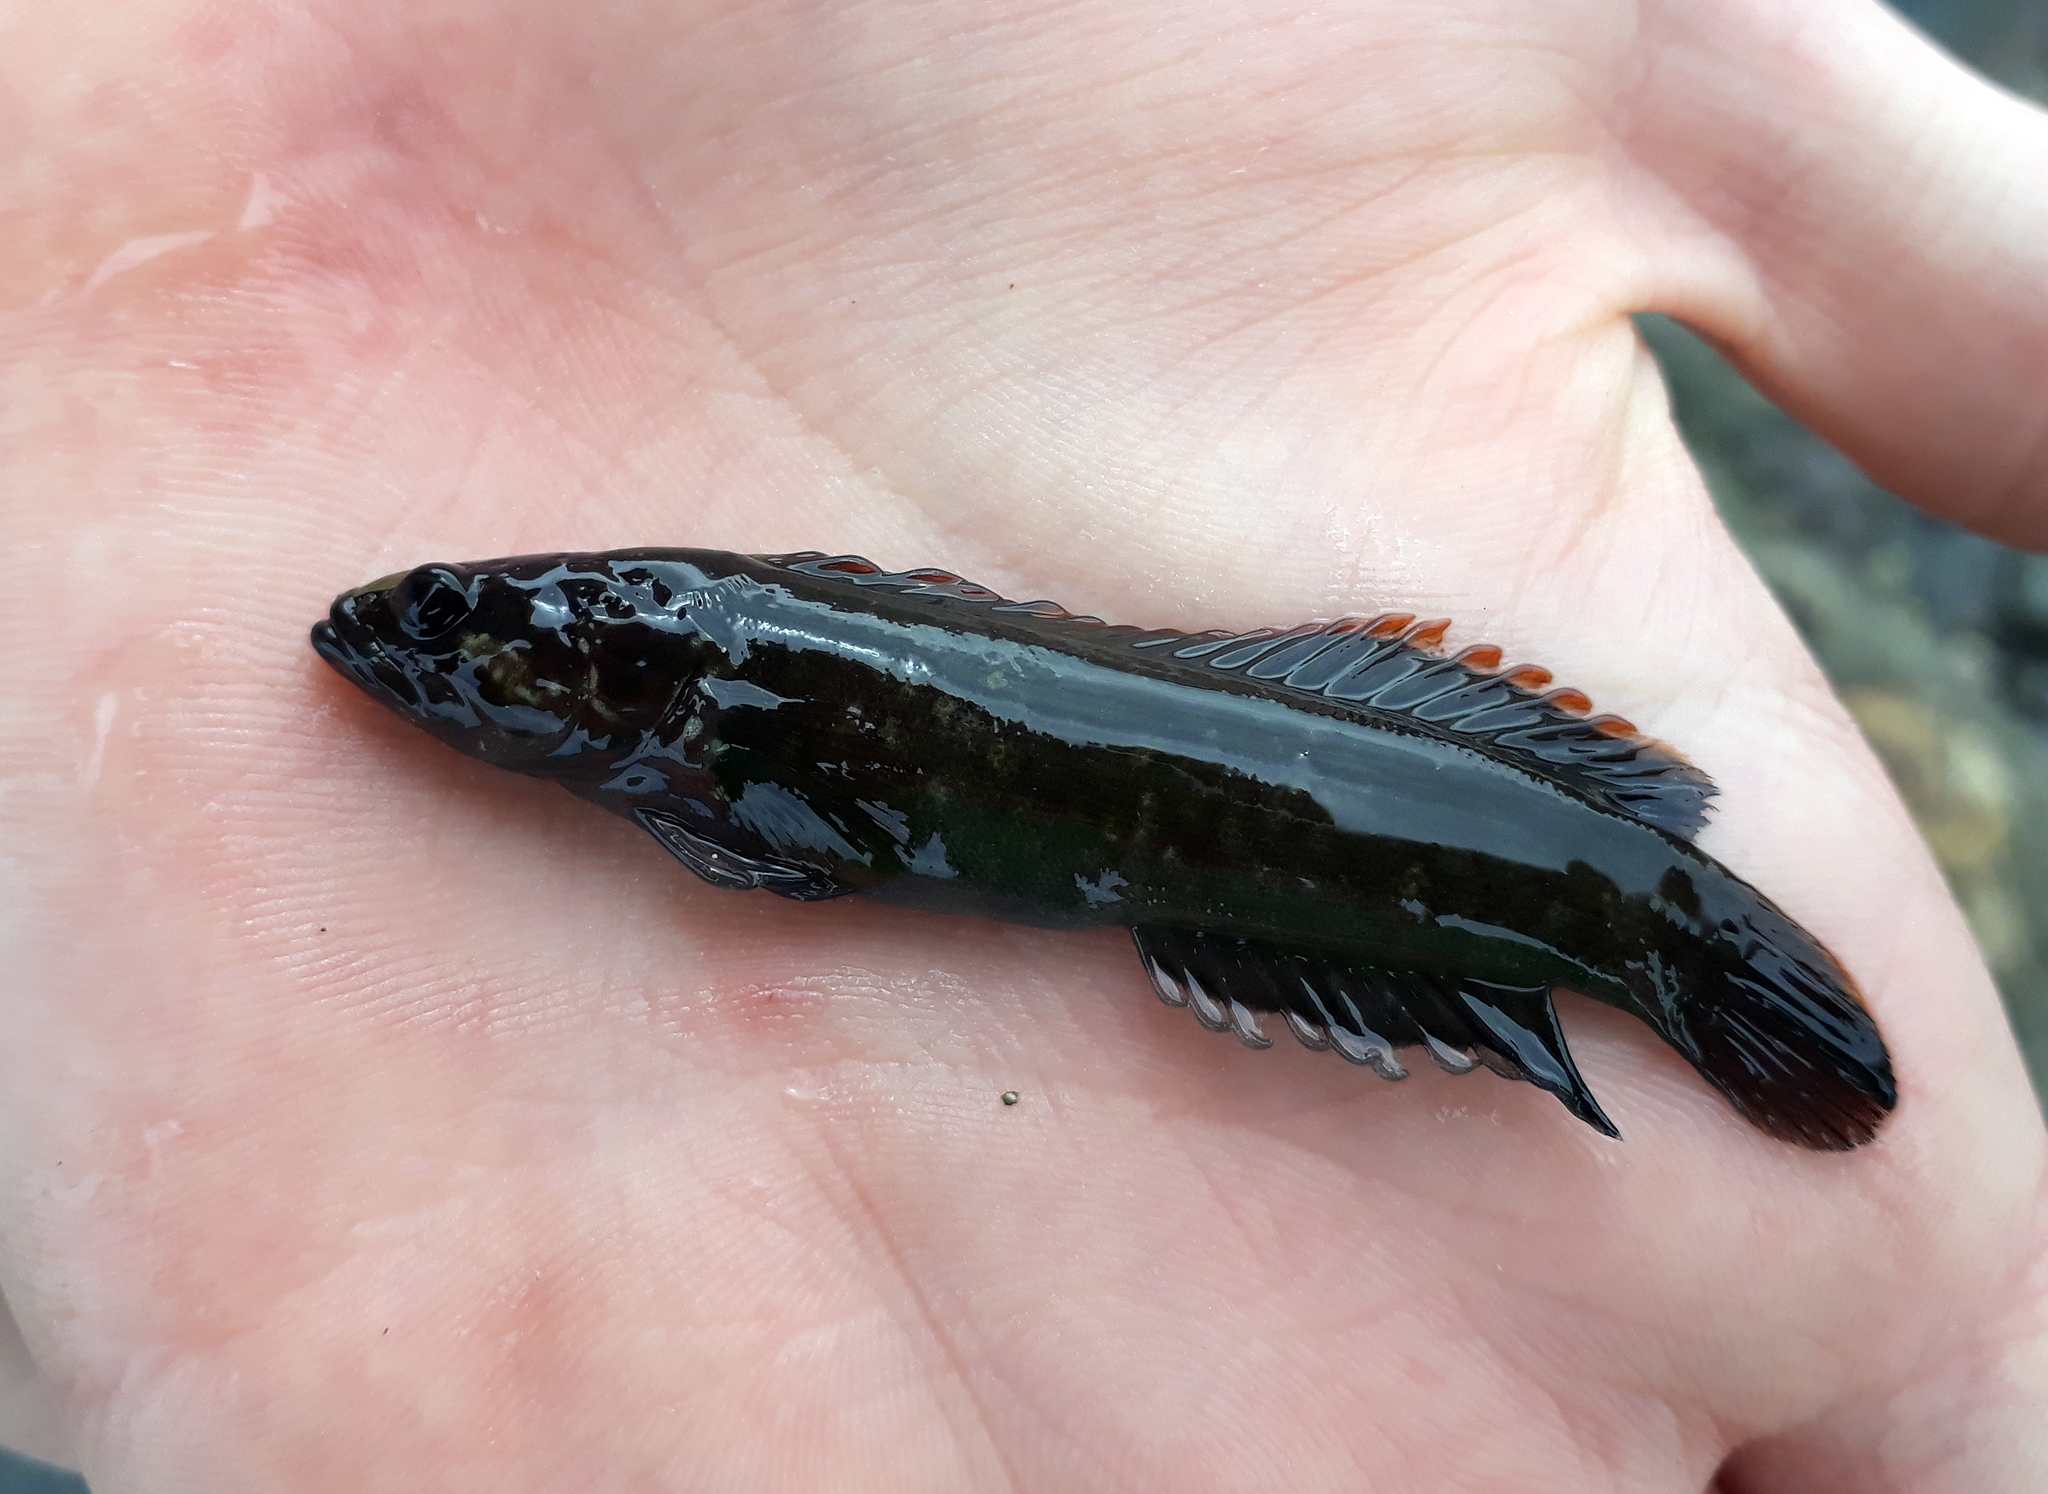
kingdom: Animalia
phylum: Chordata
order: Perciformes
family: Plesiopidae
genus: Acanthoclinus
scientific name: Acanthoclinus fuscus
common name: Olive rockfish
